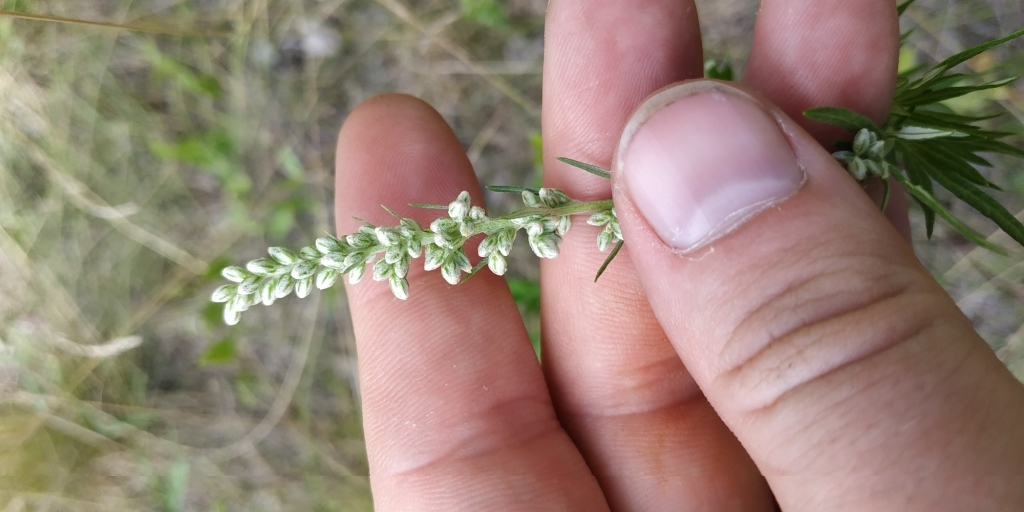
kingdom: Plantae
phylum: Tracheophyta
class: Magnoliopsida
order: Asterales
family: Asteraceae
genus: Artemisia
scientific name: Artemisia vulgaris
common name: Mugwort
